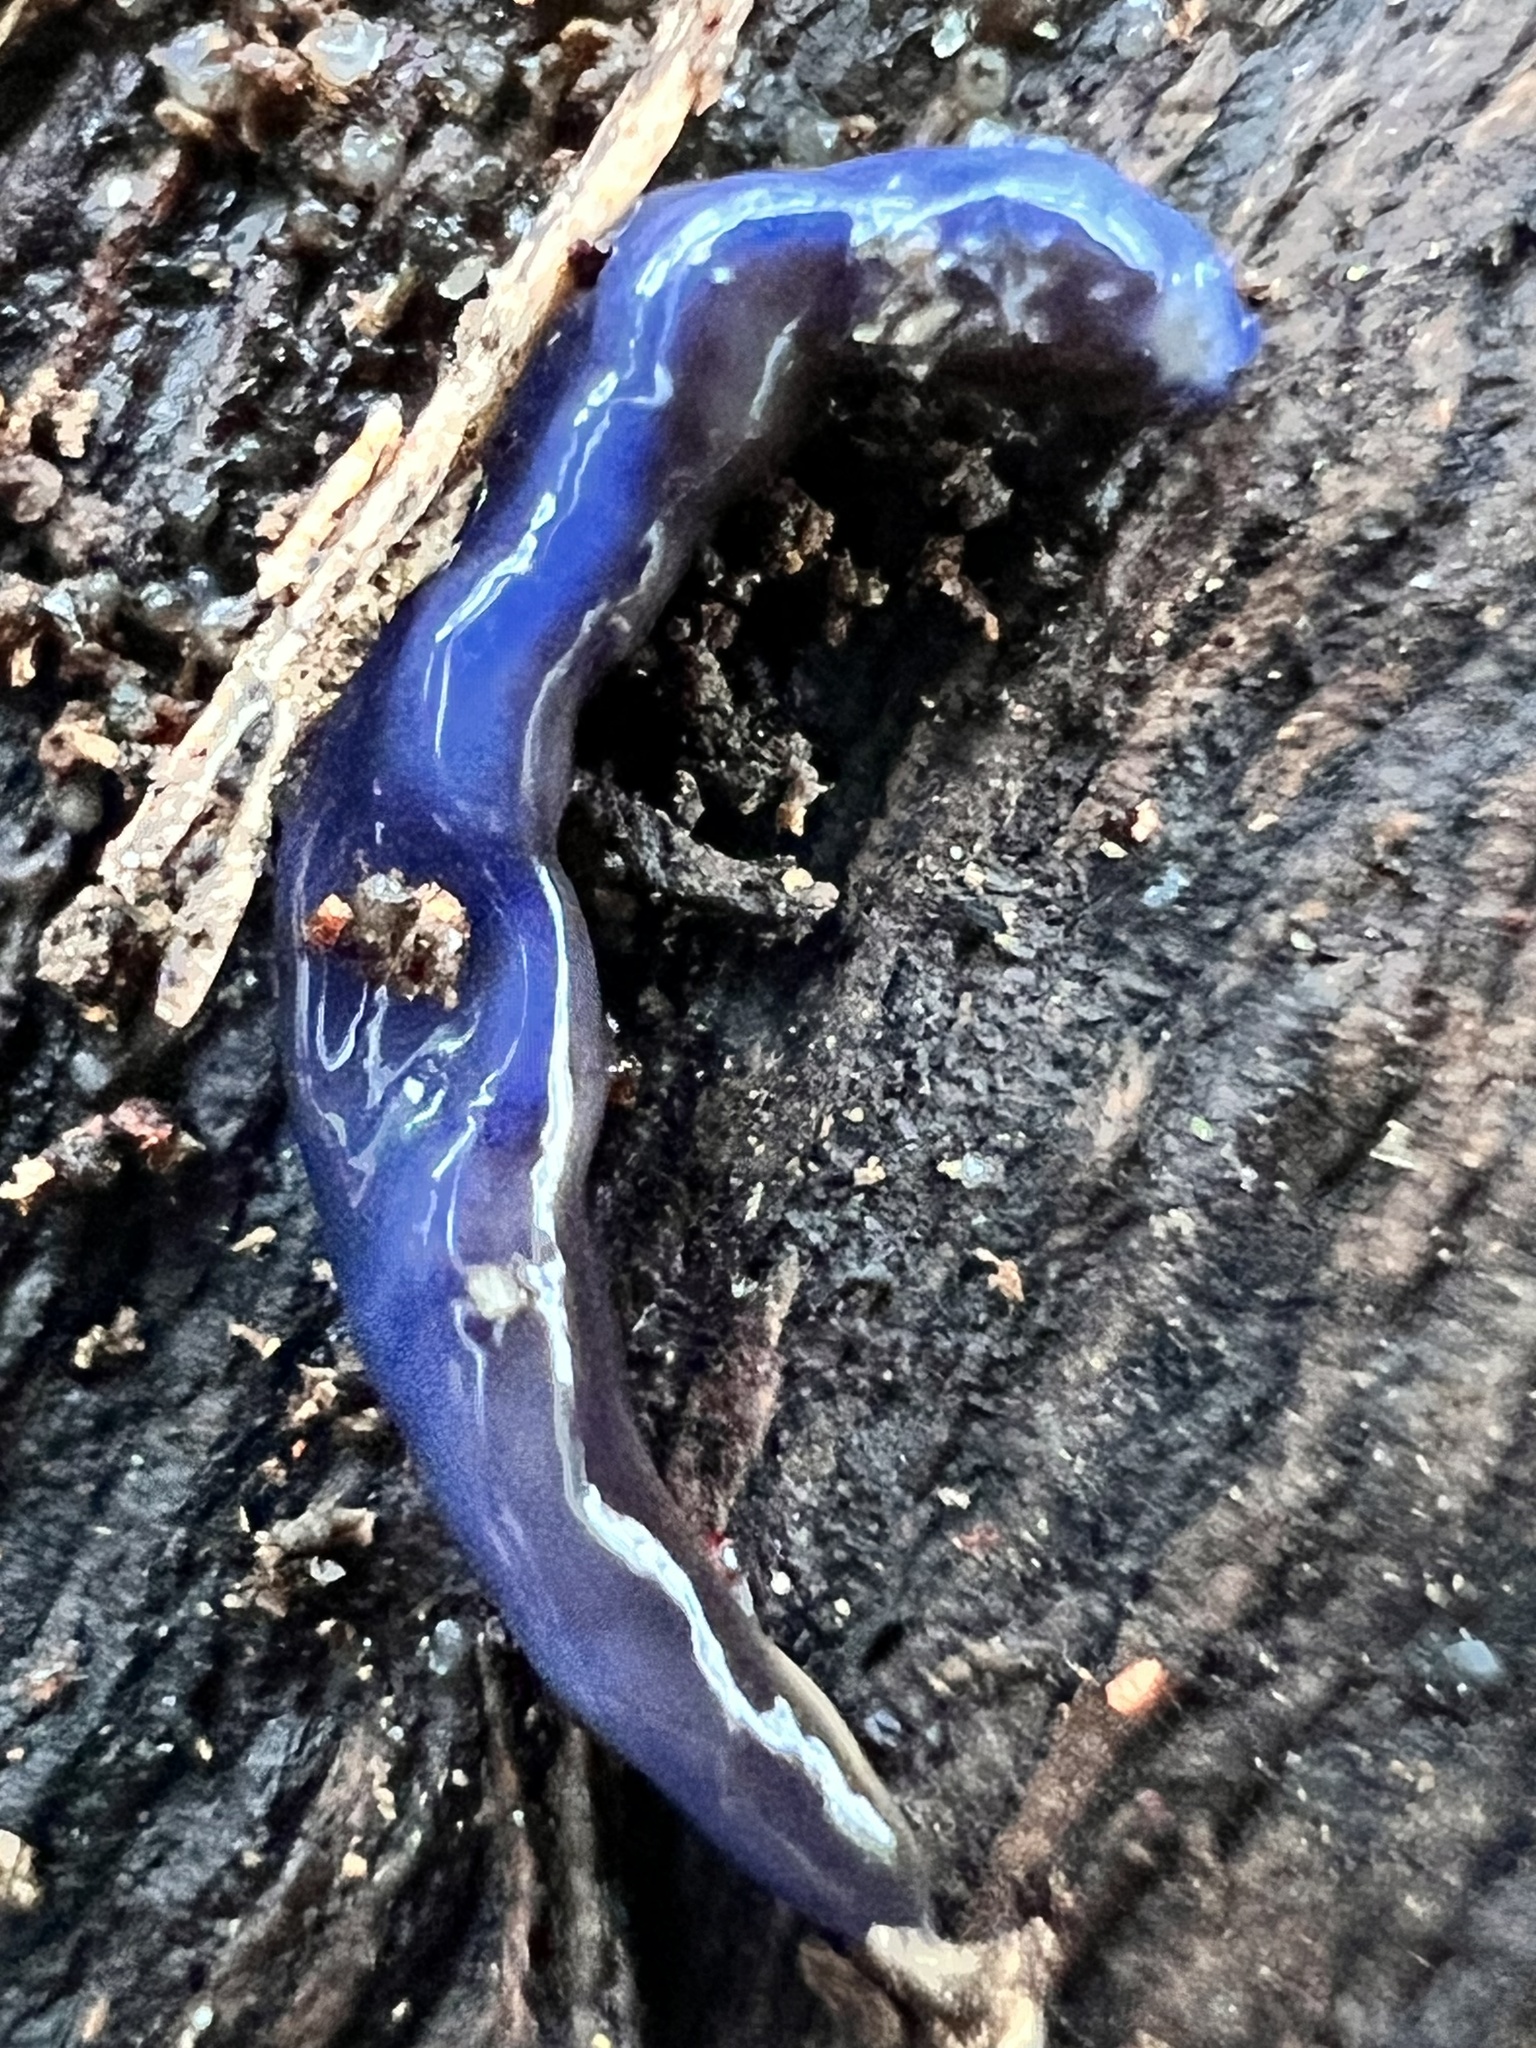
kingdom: Animalia
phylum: Platyhelminthes
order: Tricladida
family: Geoplanidae
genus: Caenoplana
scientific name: Caenoplana coerulea
